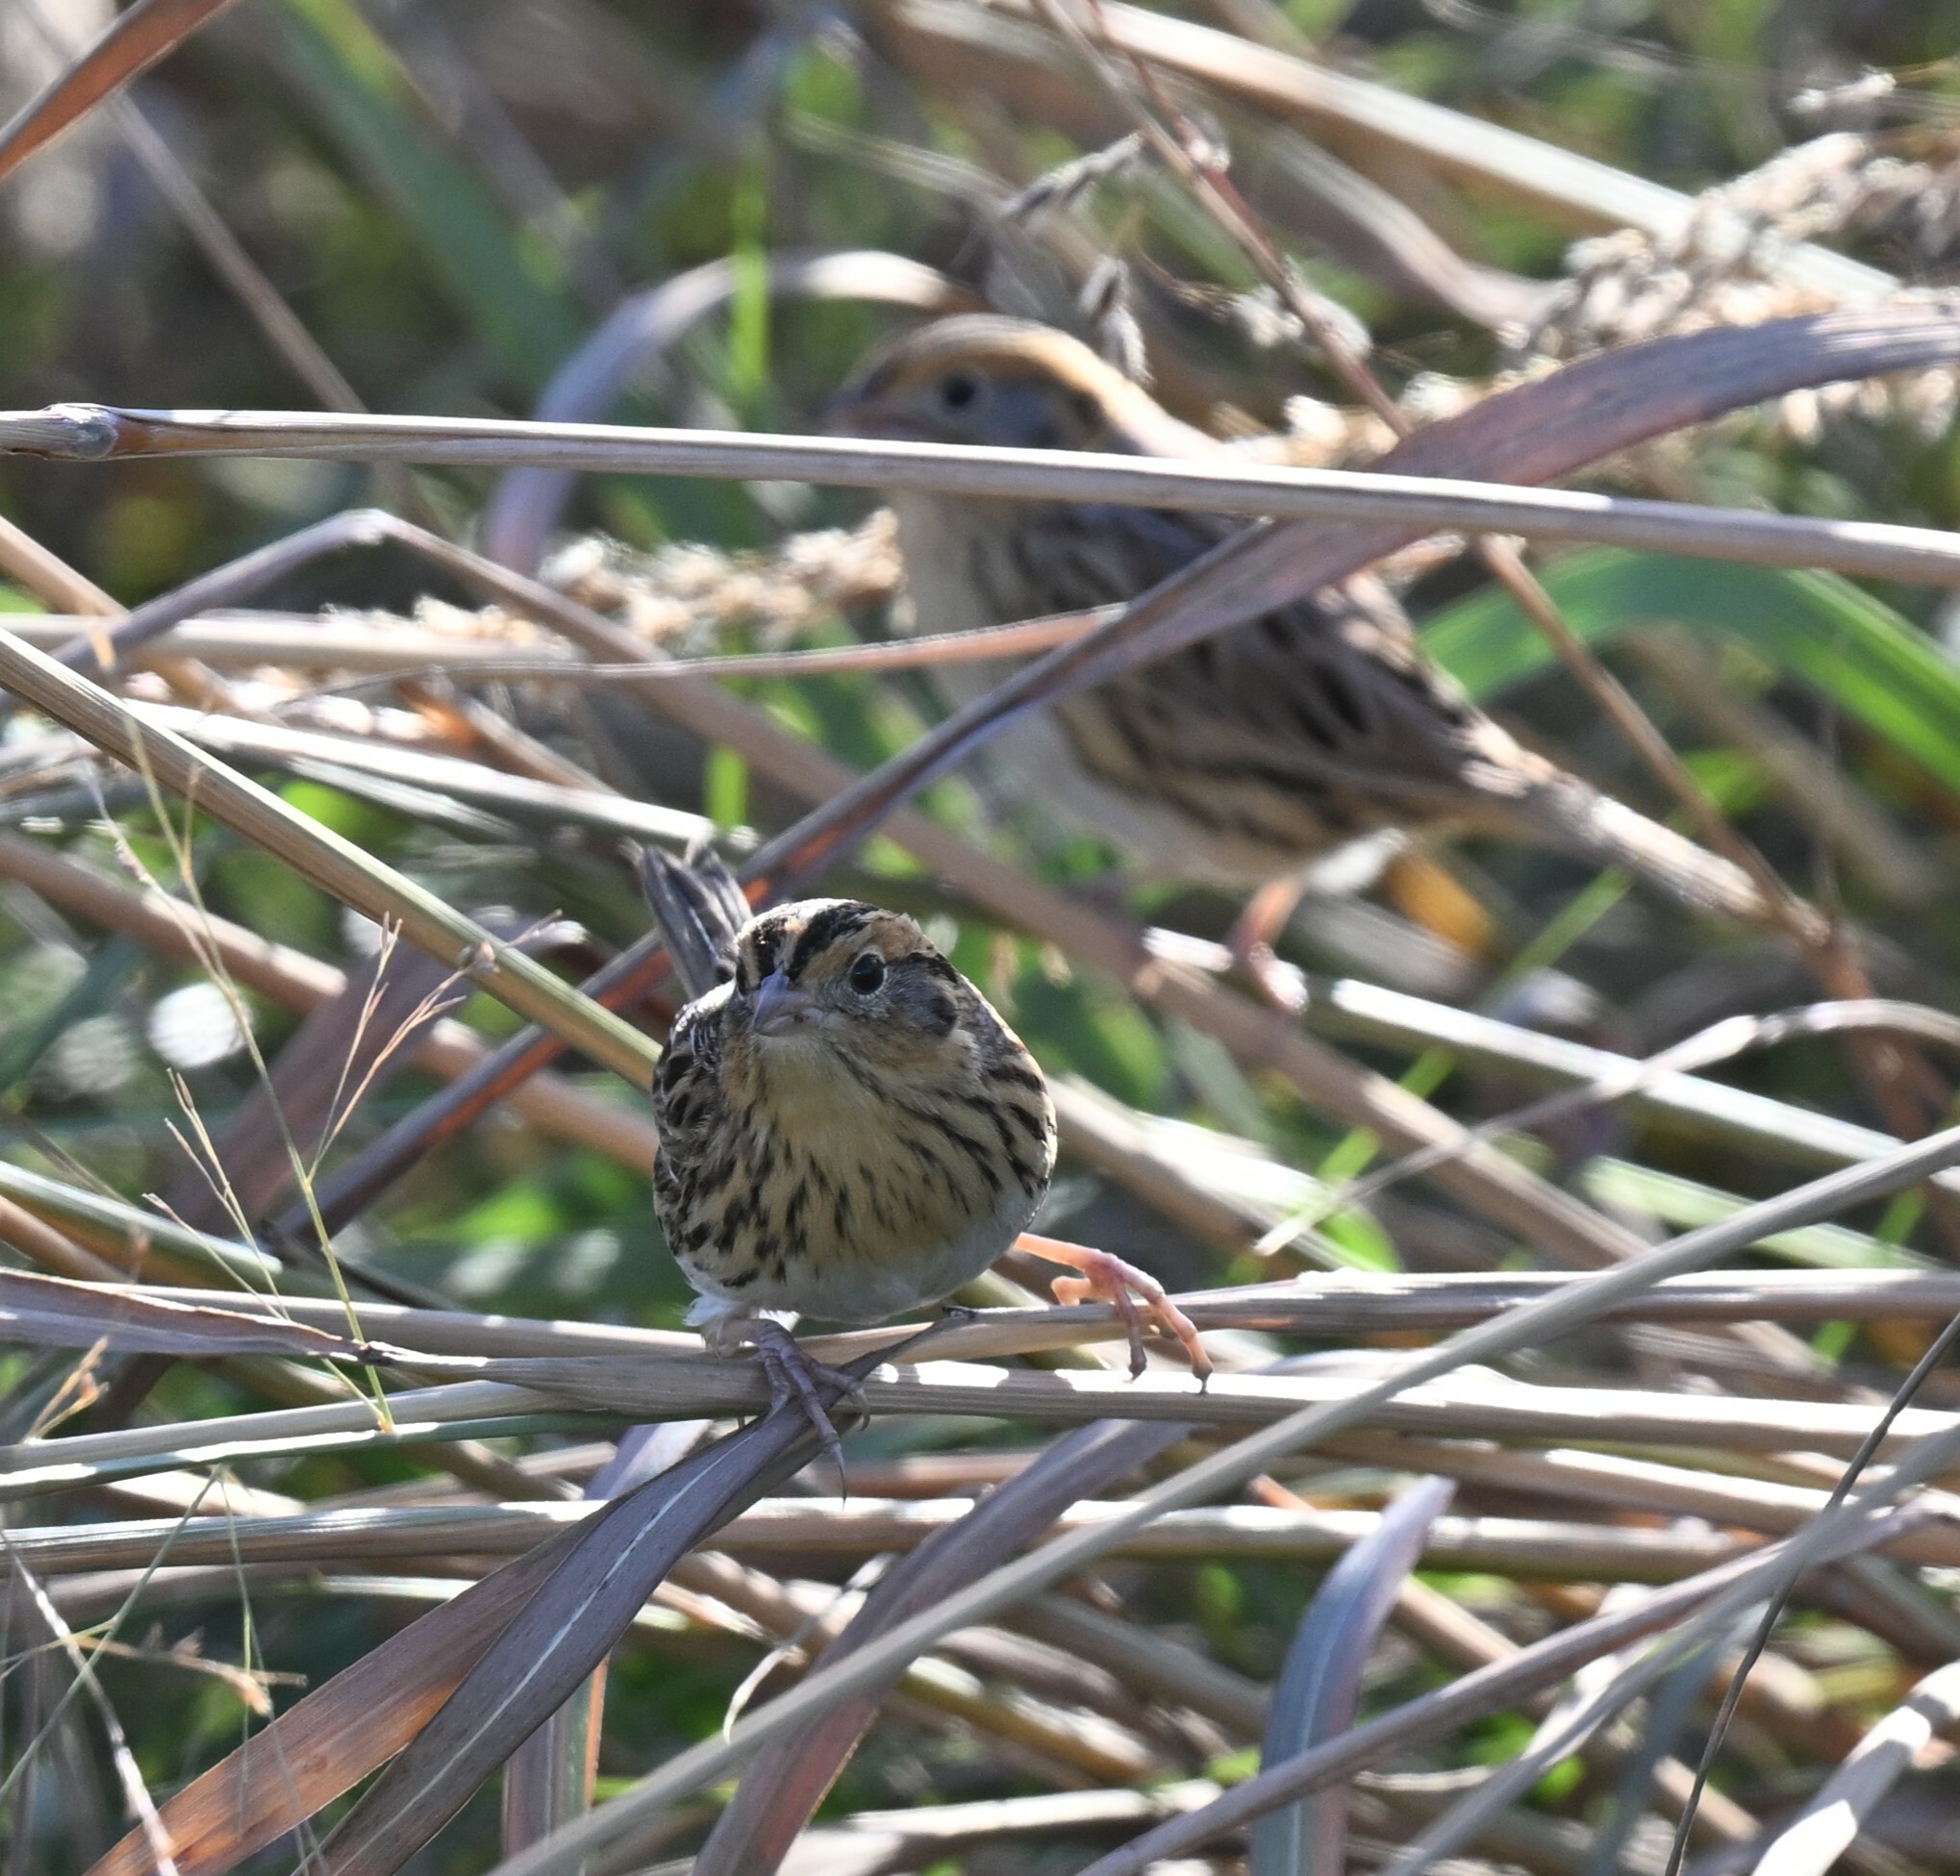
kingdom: Animalia
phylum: Chordata
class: Aves
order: Passeriformes
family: Passerellidae
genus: Ammospiza
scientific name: Ammospiza leconteii
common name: Le conte's sparrow
